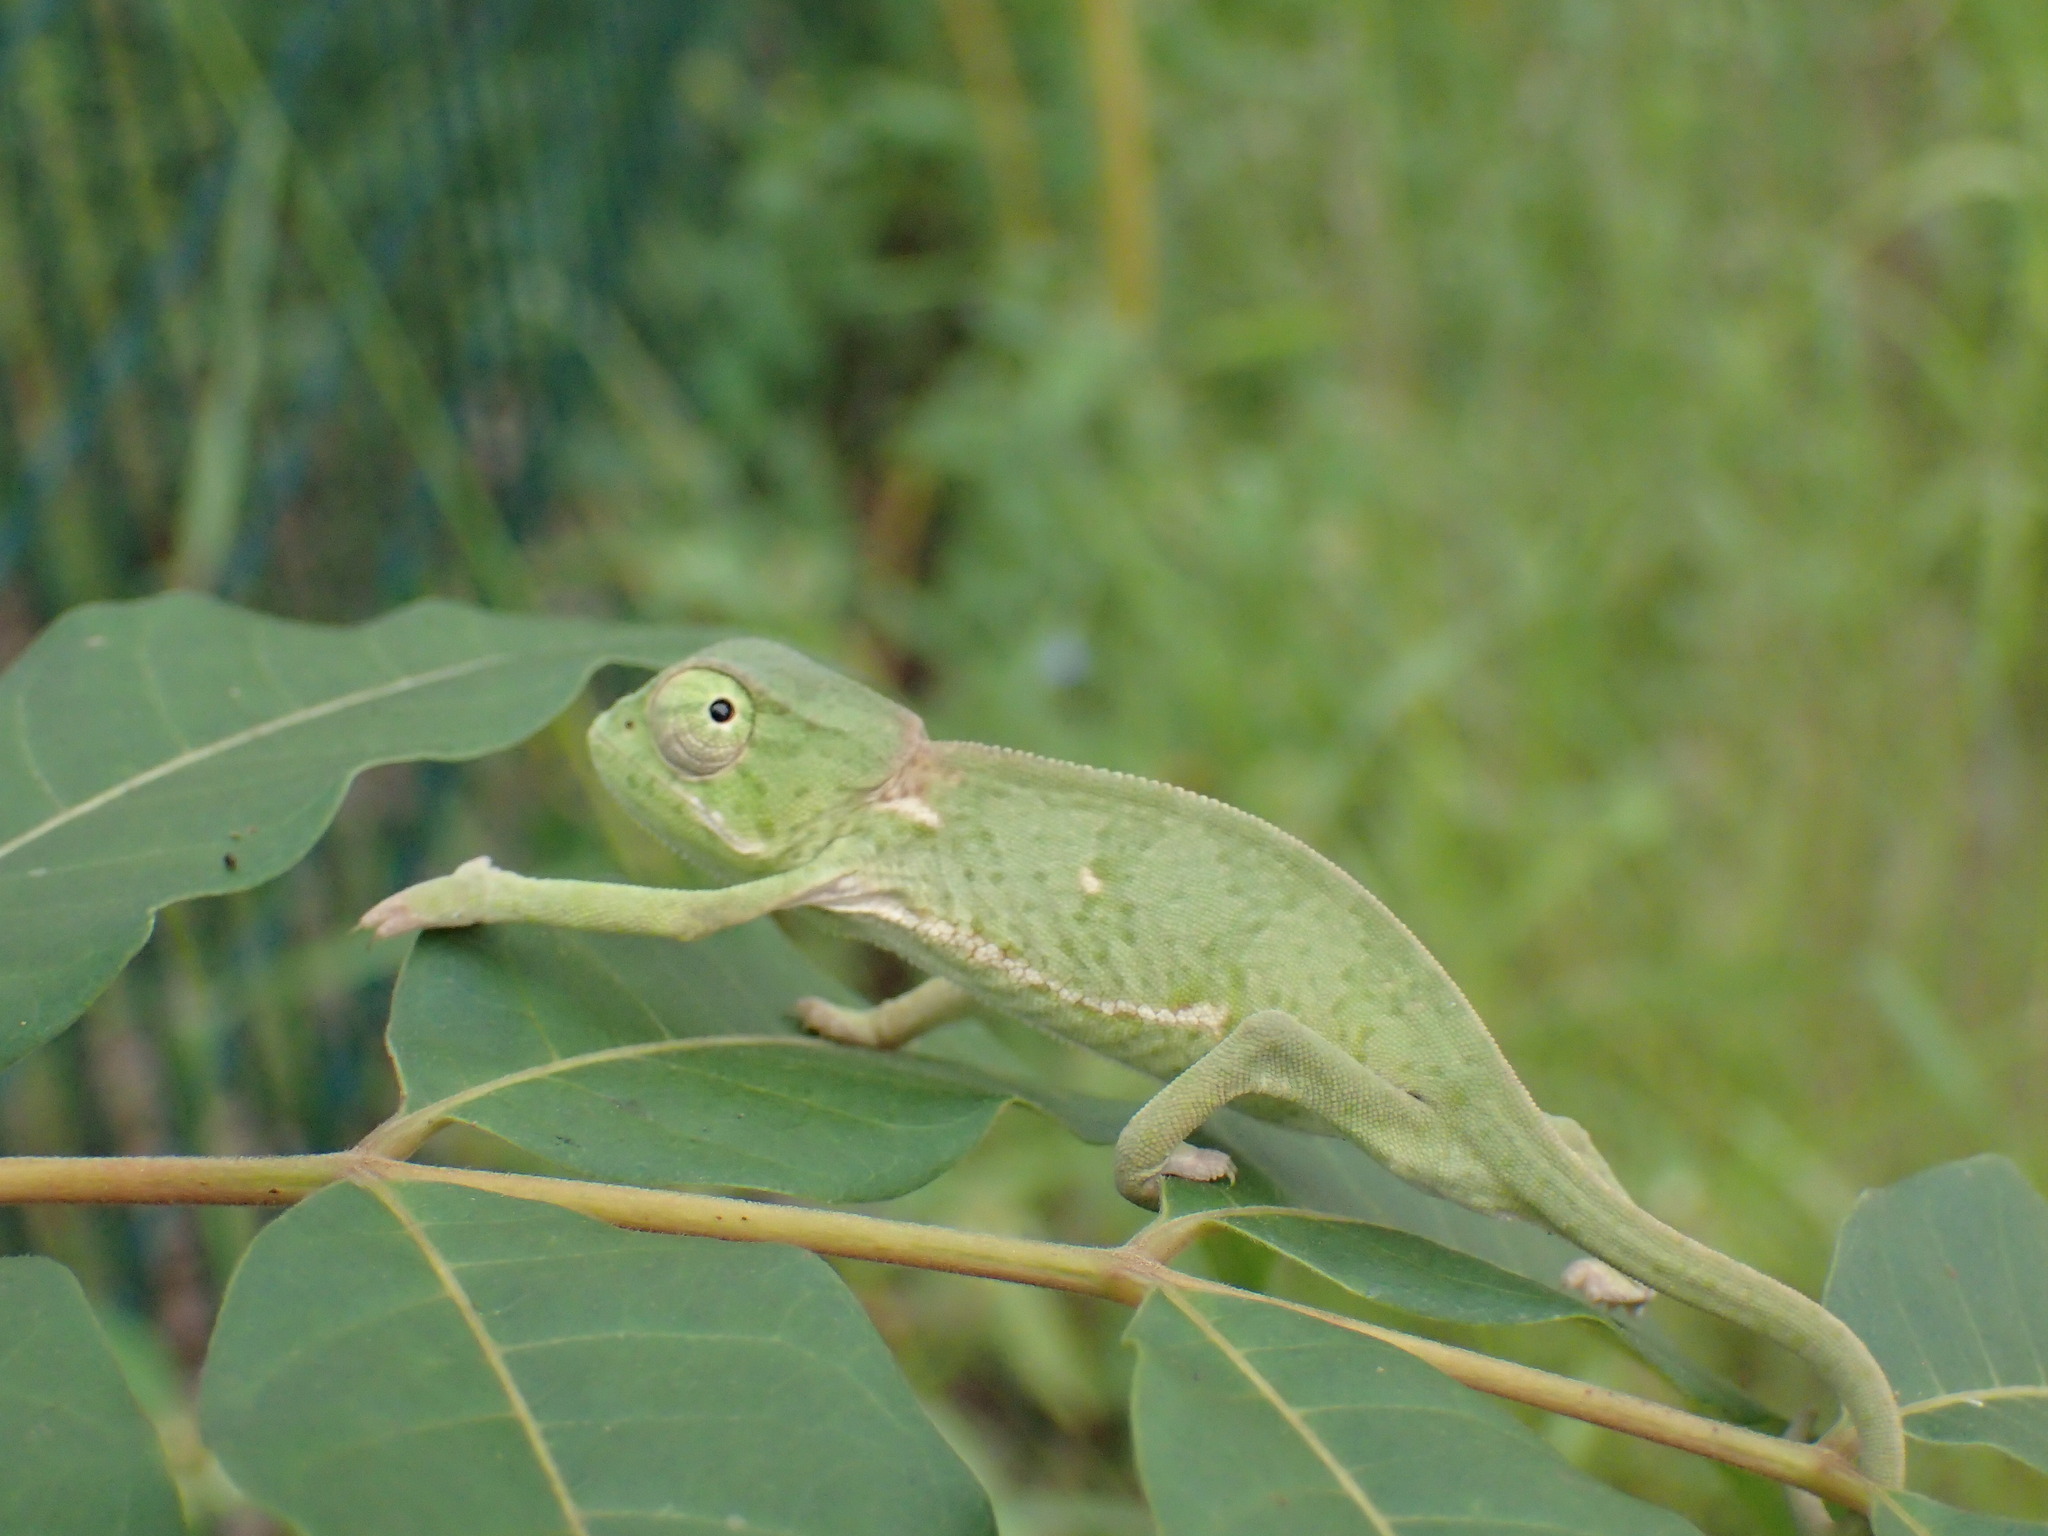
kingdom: Animalia
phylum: Chordata
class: Squamata
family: Chamaeleonidae
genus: Chamaeleo
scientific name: Chamaeleo dilepis
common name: Flapneck chameleon
